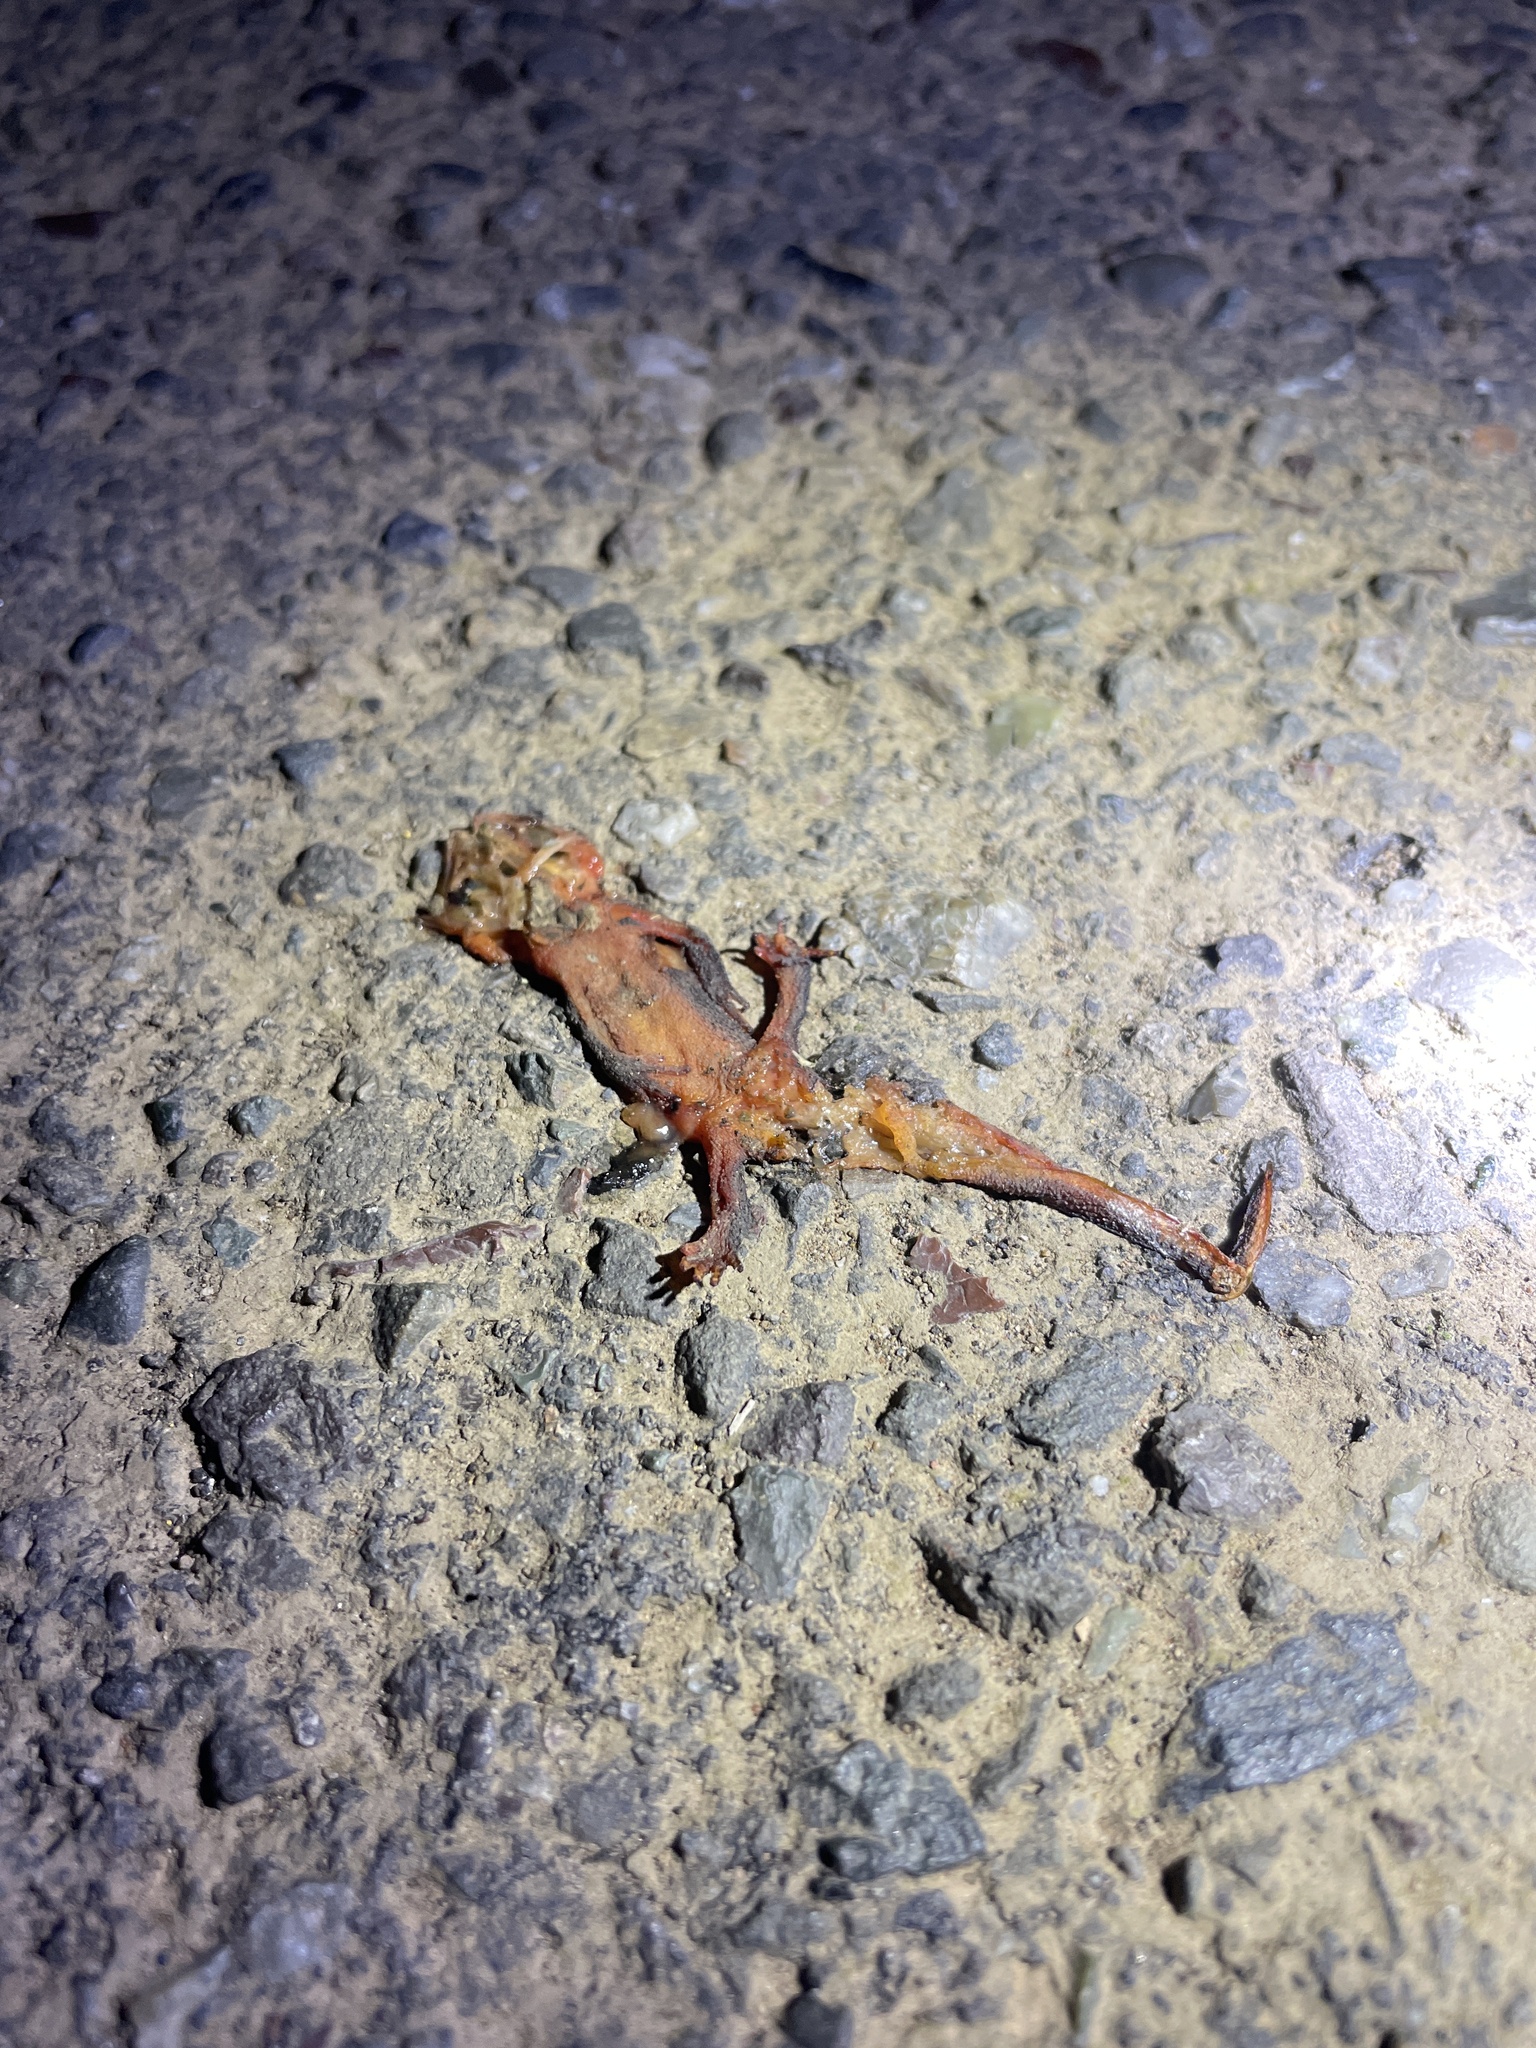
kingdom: Animalia
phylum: Chordata
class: Amphibia
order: Caudata
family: Salamandridae
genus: Taricha
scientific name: Taricha
